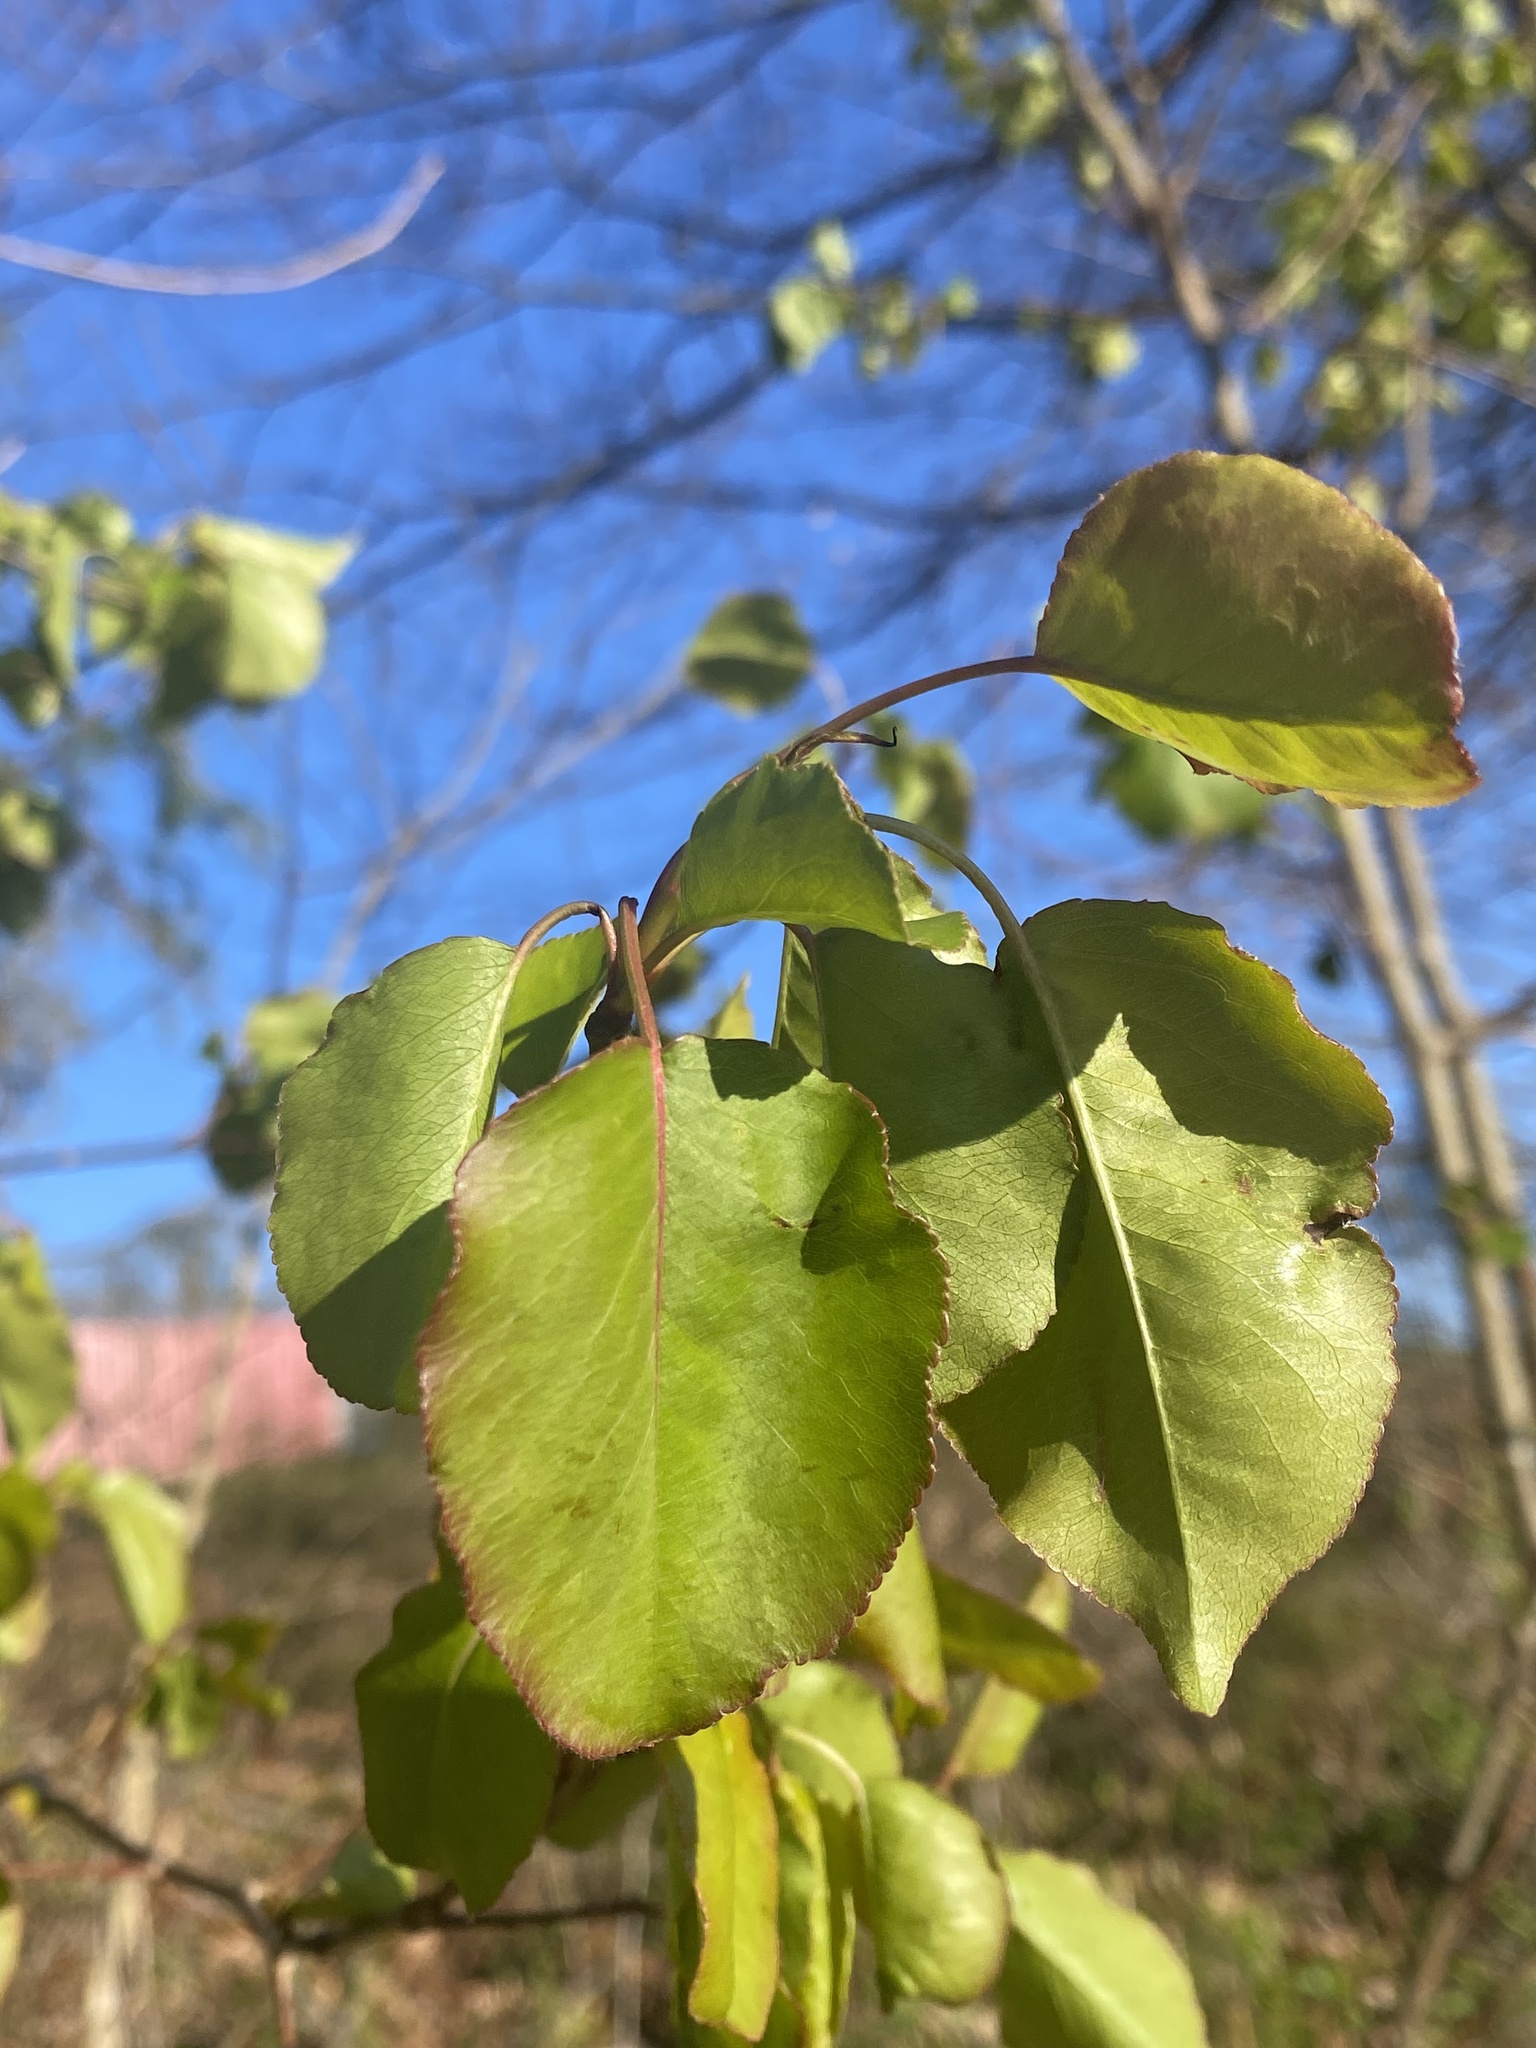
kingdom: Plantae
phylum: Tracheophyta
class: Magnoliopsida
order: Rosales
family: Rosaceae
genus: Pyrus
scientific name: Pyrus calleryana
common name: Callery pear
